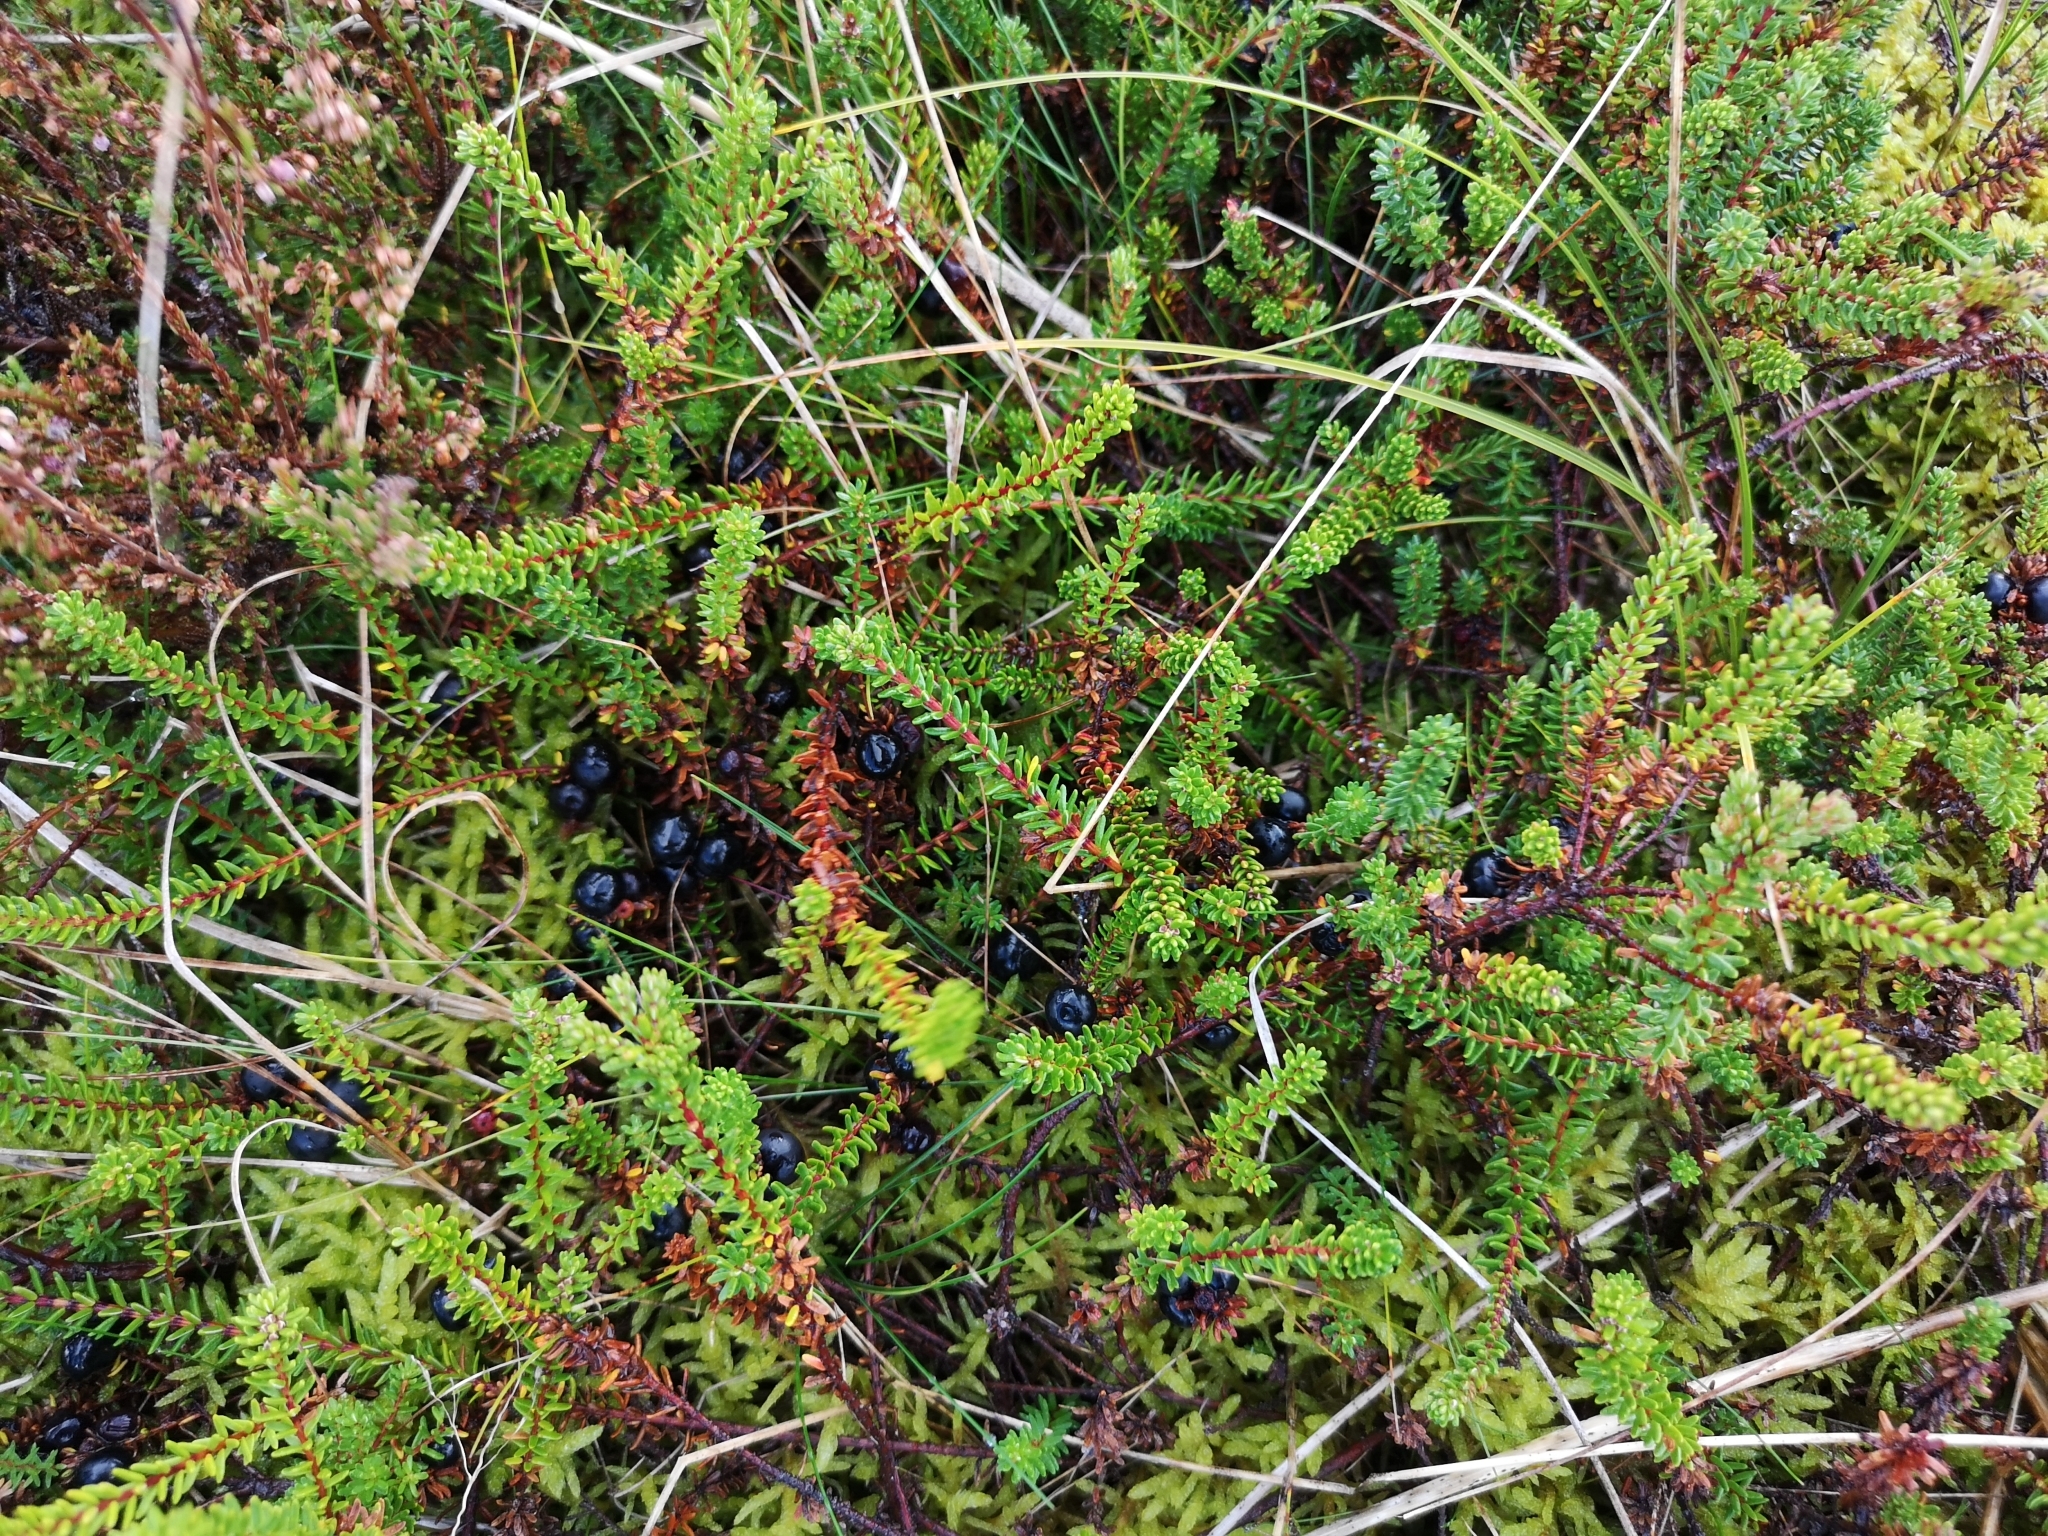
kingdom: Plantae
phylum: Tracheophyta
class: Magnoliopsida
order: Ericales
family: Ericaceae
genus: Empetrum
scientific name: Empetrum nigrum
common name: Black crowberry
